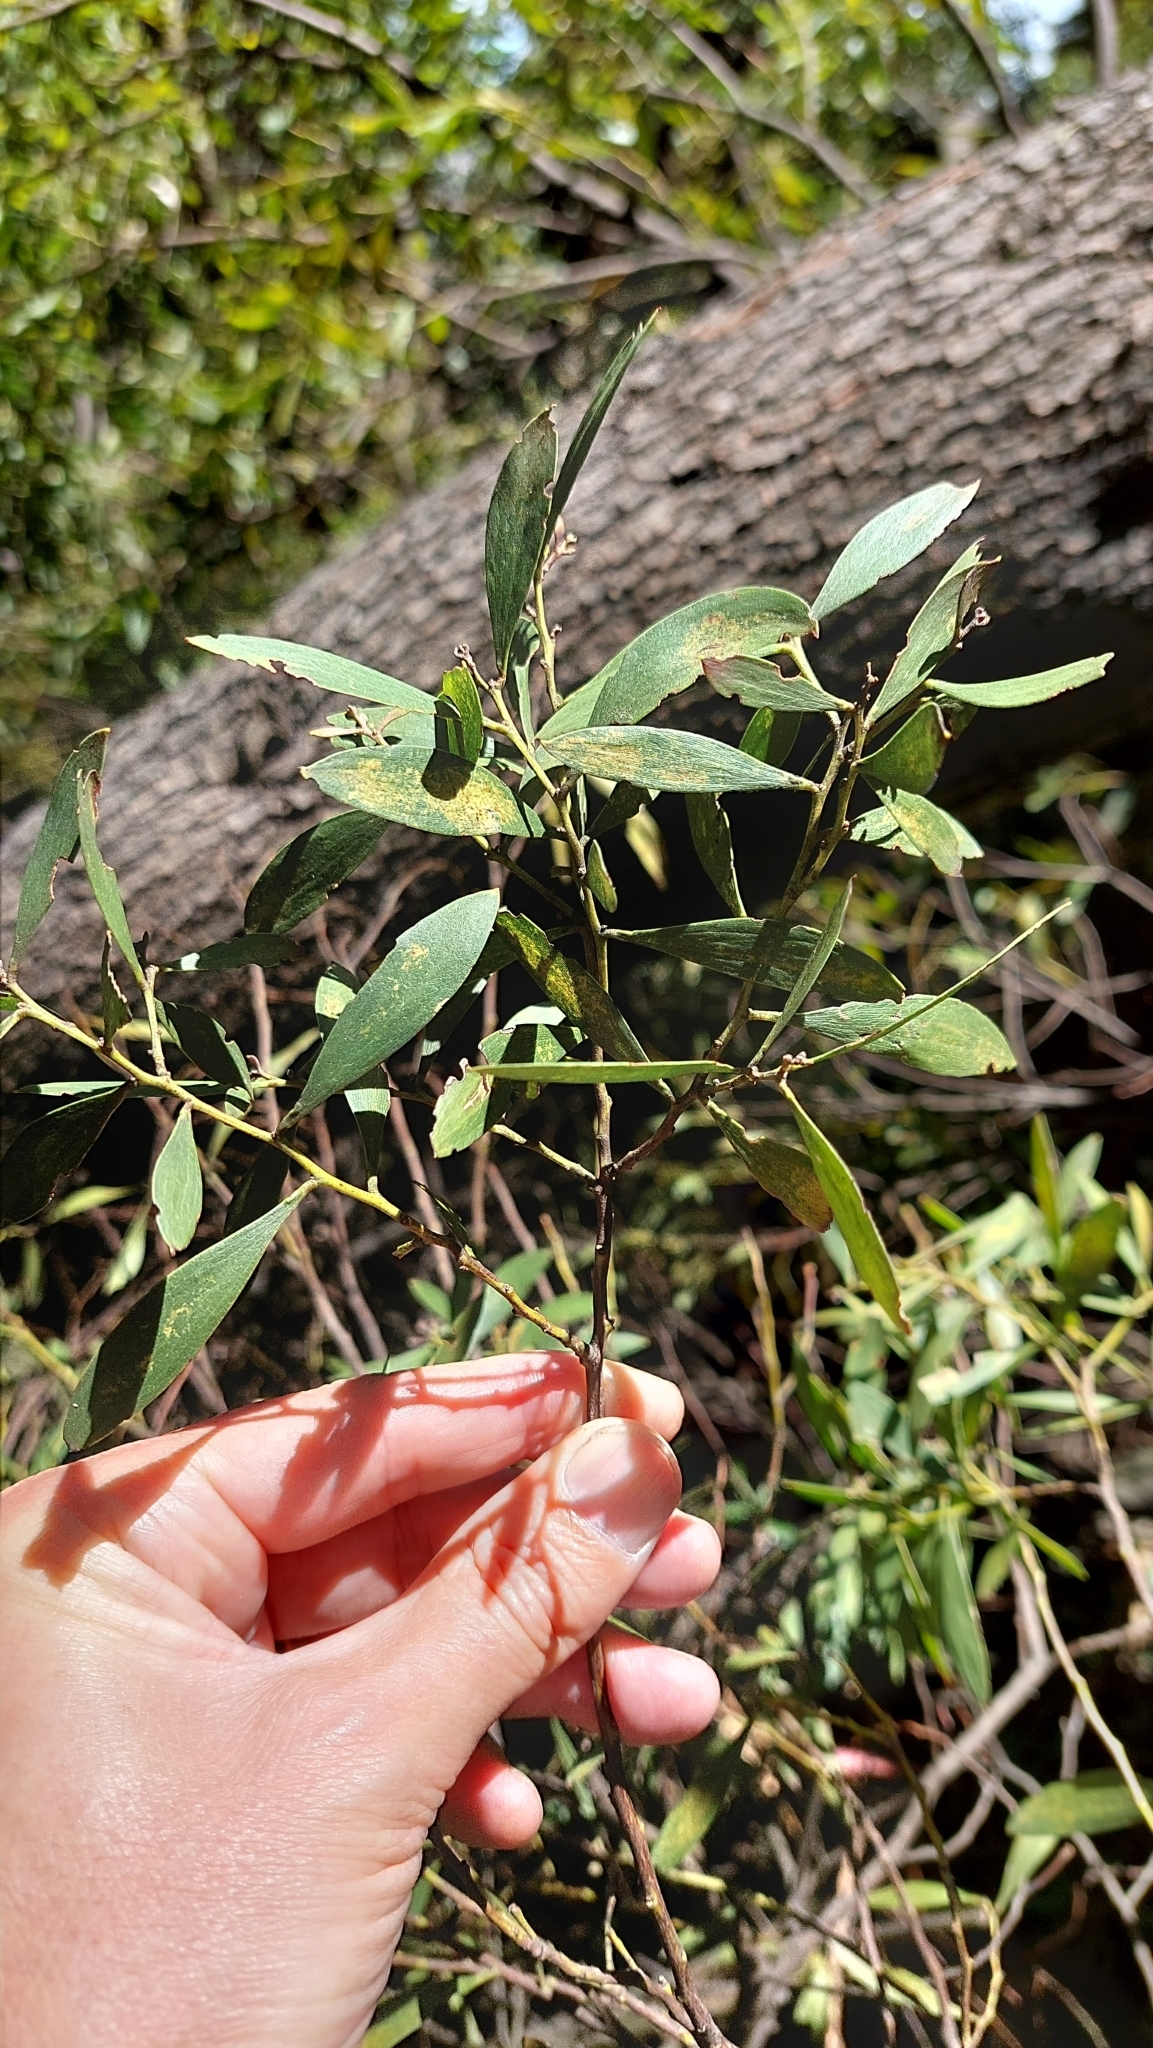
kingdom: Plantae
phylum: Tracheophyta
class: Magnoliopsida
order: Fabales
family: Fabaceae
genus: Acacia
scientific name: Acacia melanoxylon
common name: Blackwood
